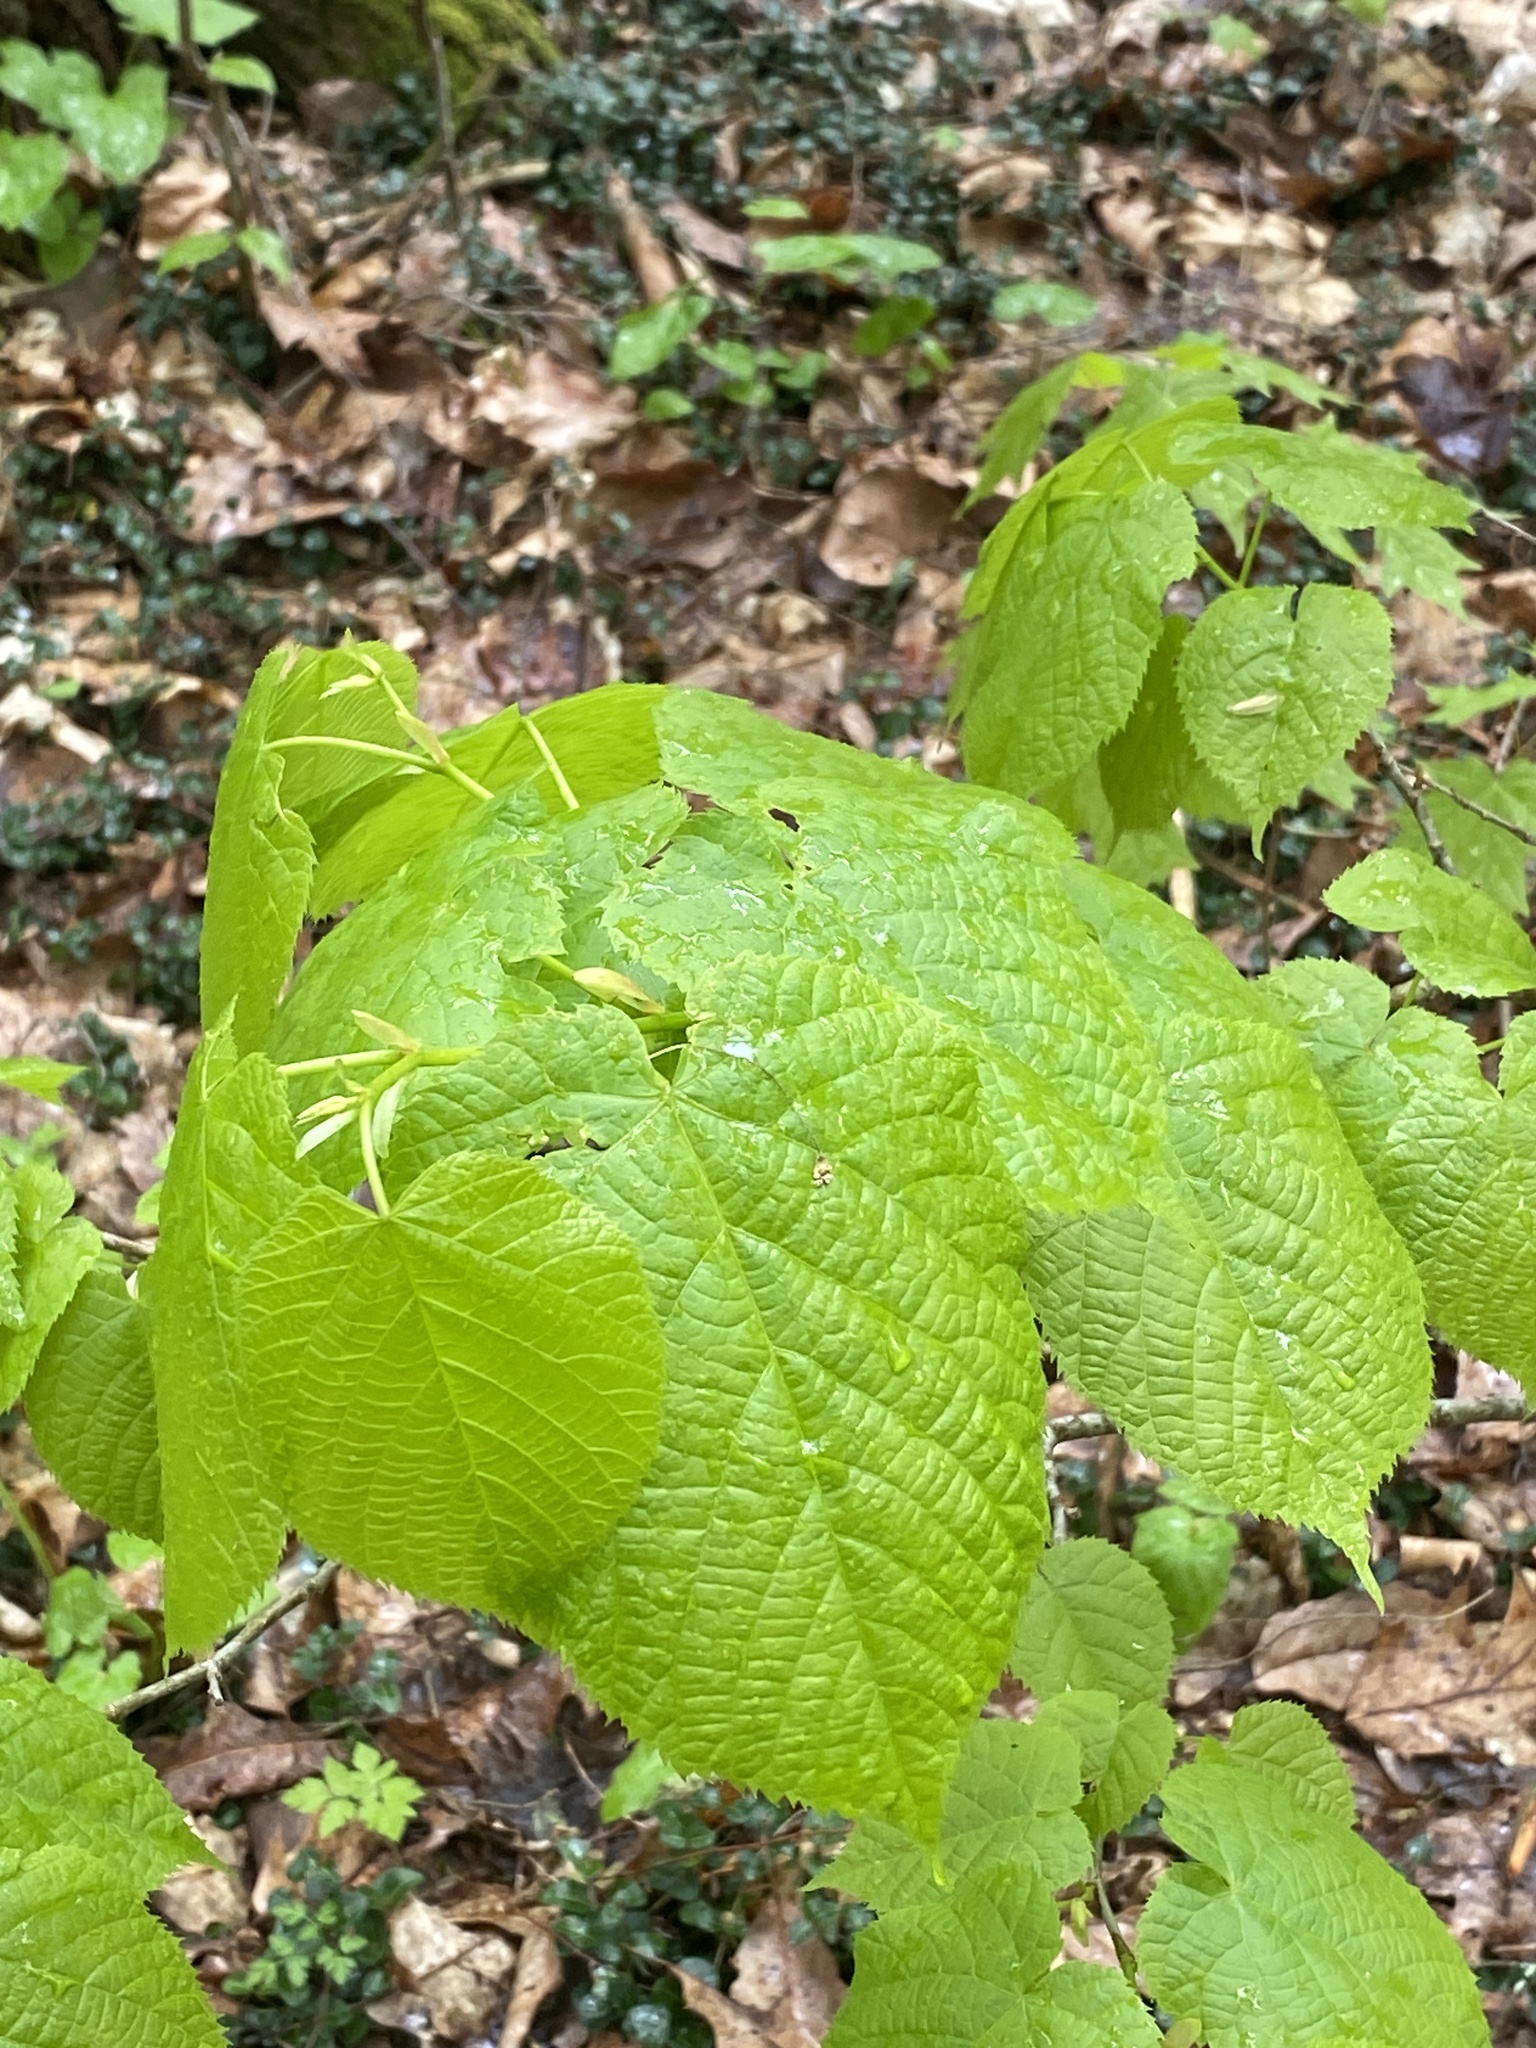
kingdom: Plantae
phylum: Tracheophyta
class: Magnoliopsida
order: Malvales
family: Malvaceae
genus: Tilia
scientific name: Tilia americana
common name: Basswood
